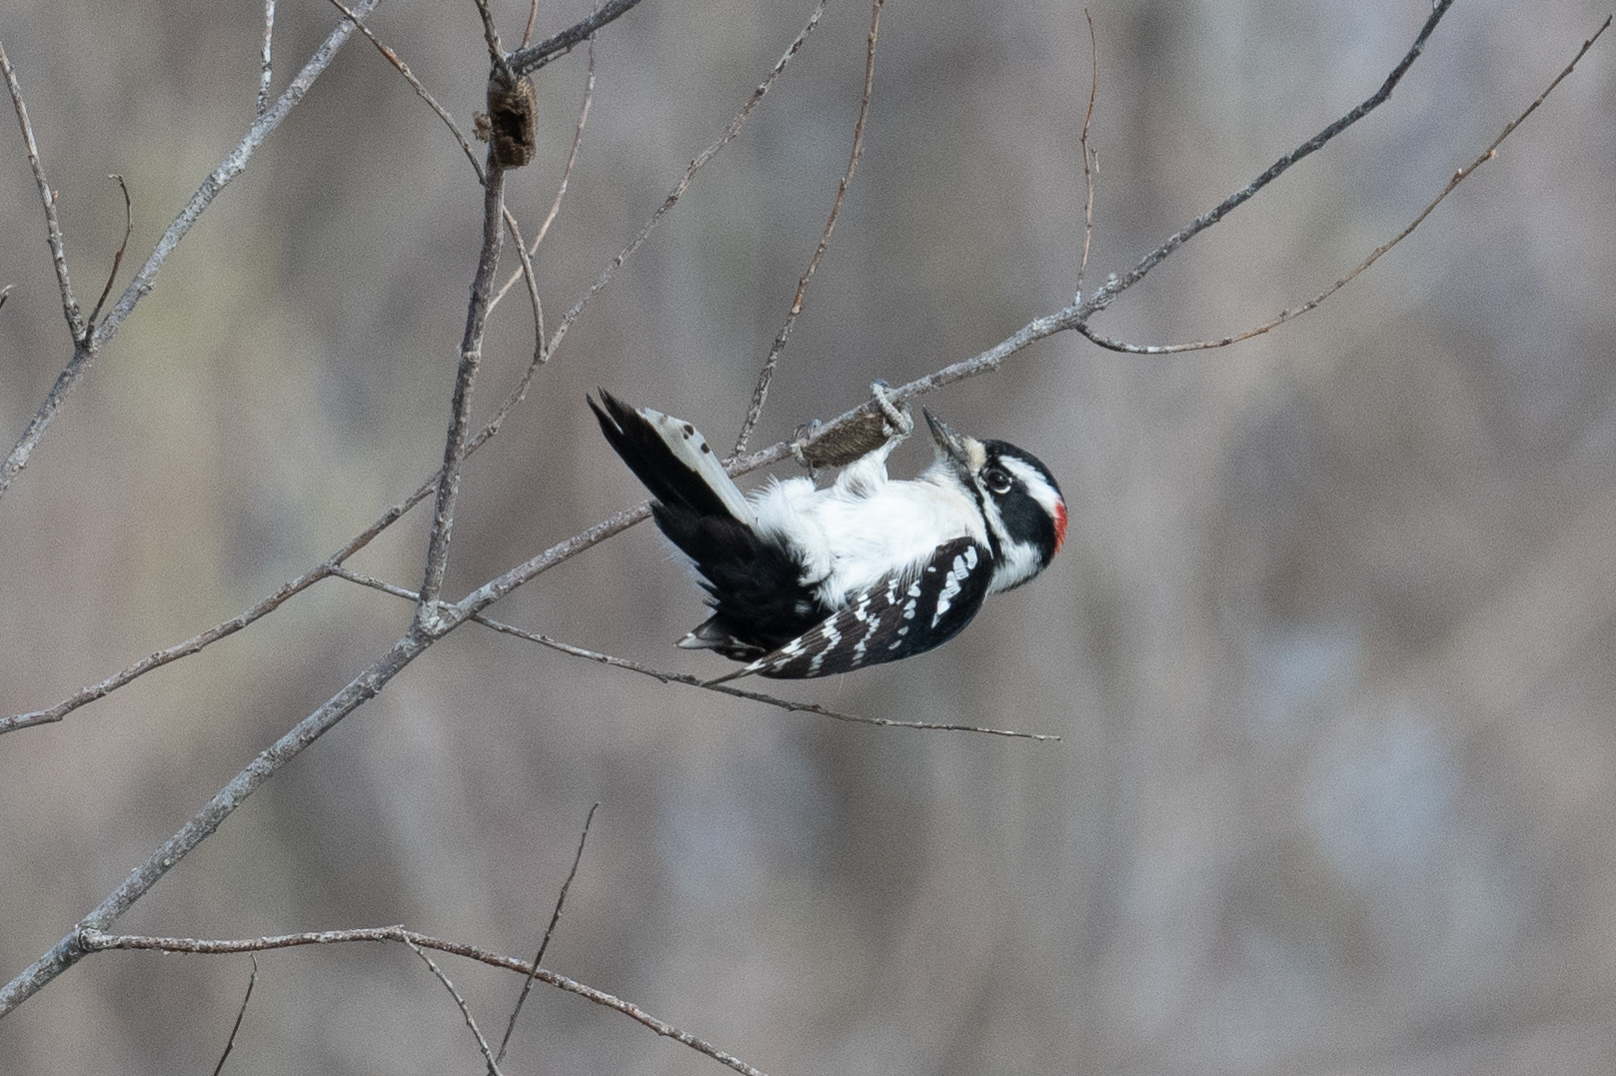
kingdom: Animalia
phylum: Chordata
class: Aves
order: Piciformes
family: Picidae
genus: Dryobates
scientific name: Dryobates pubescens
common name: Downy woodpecker
